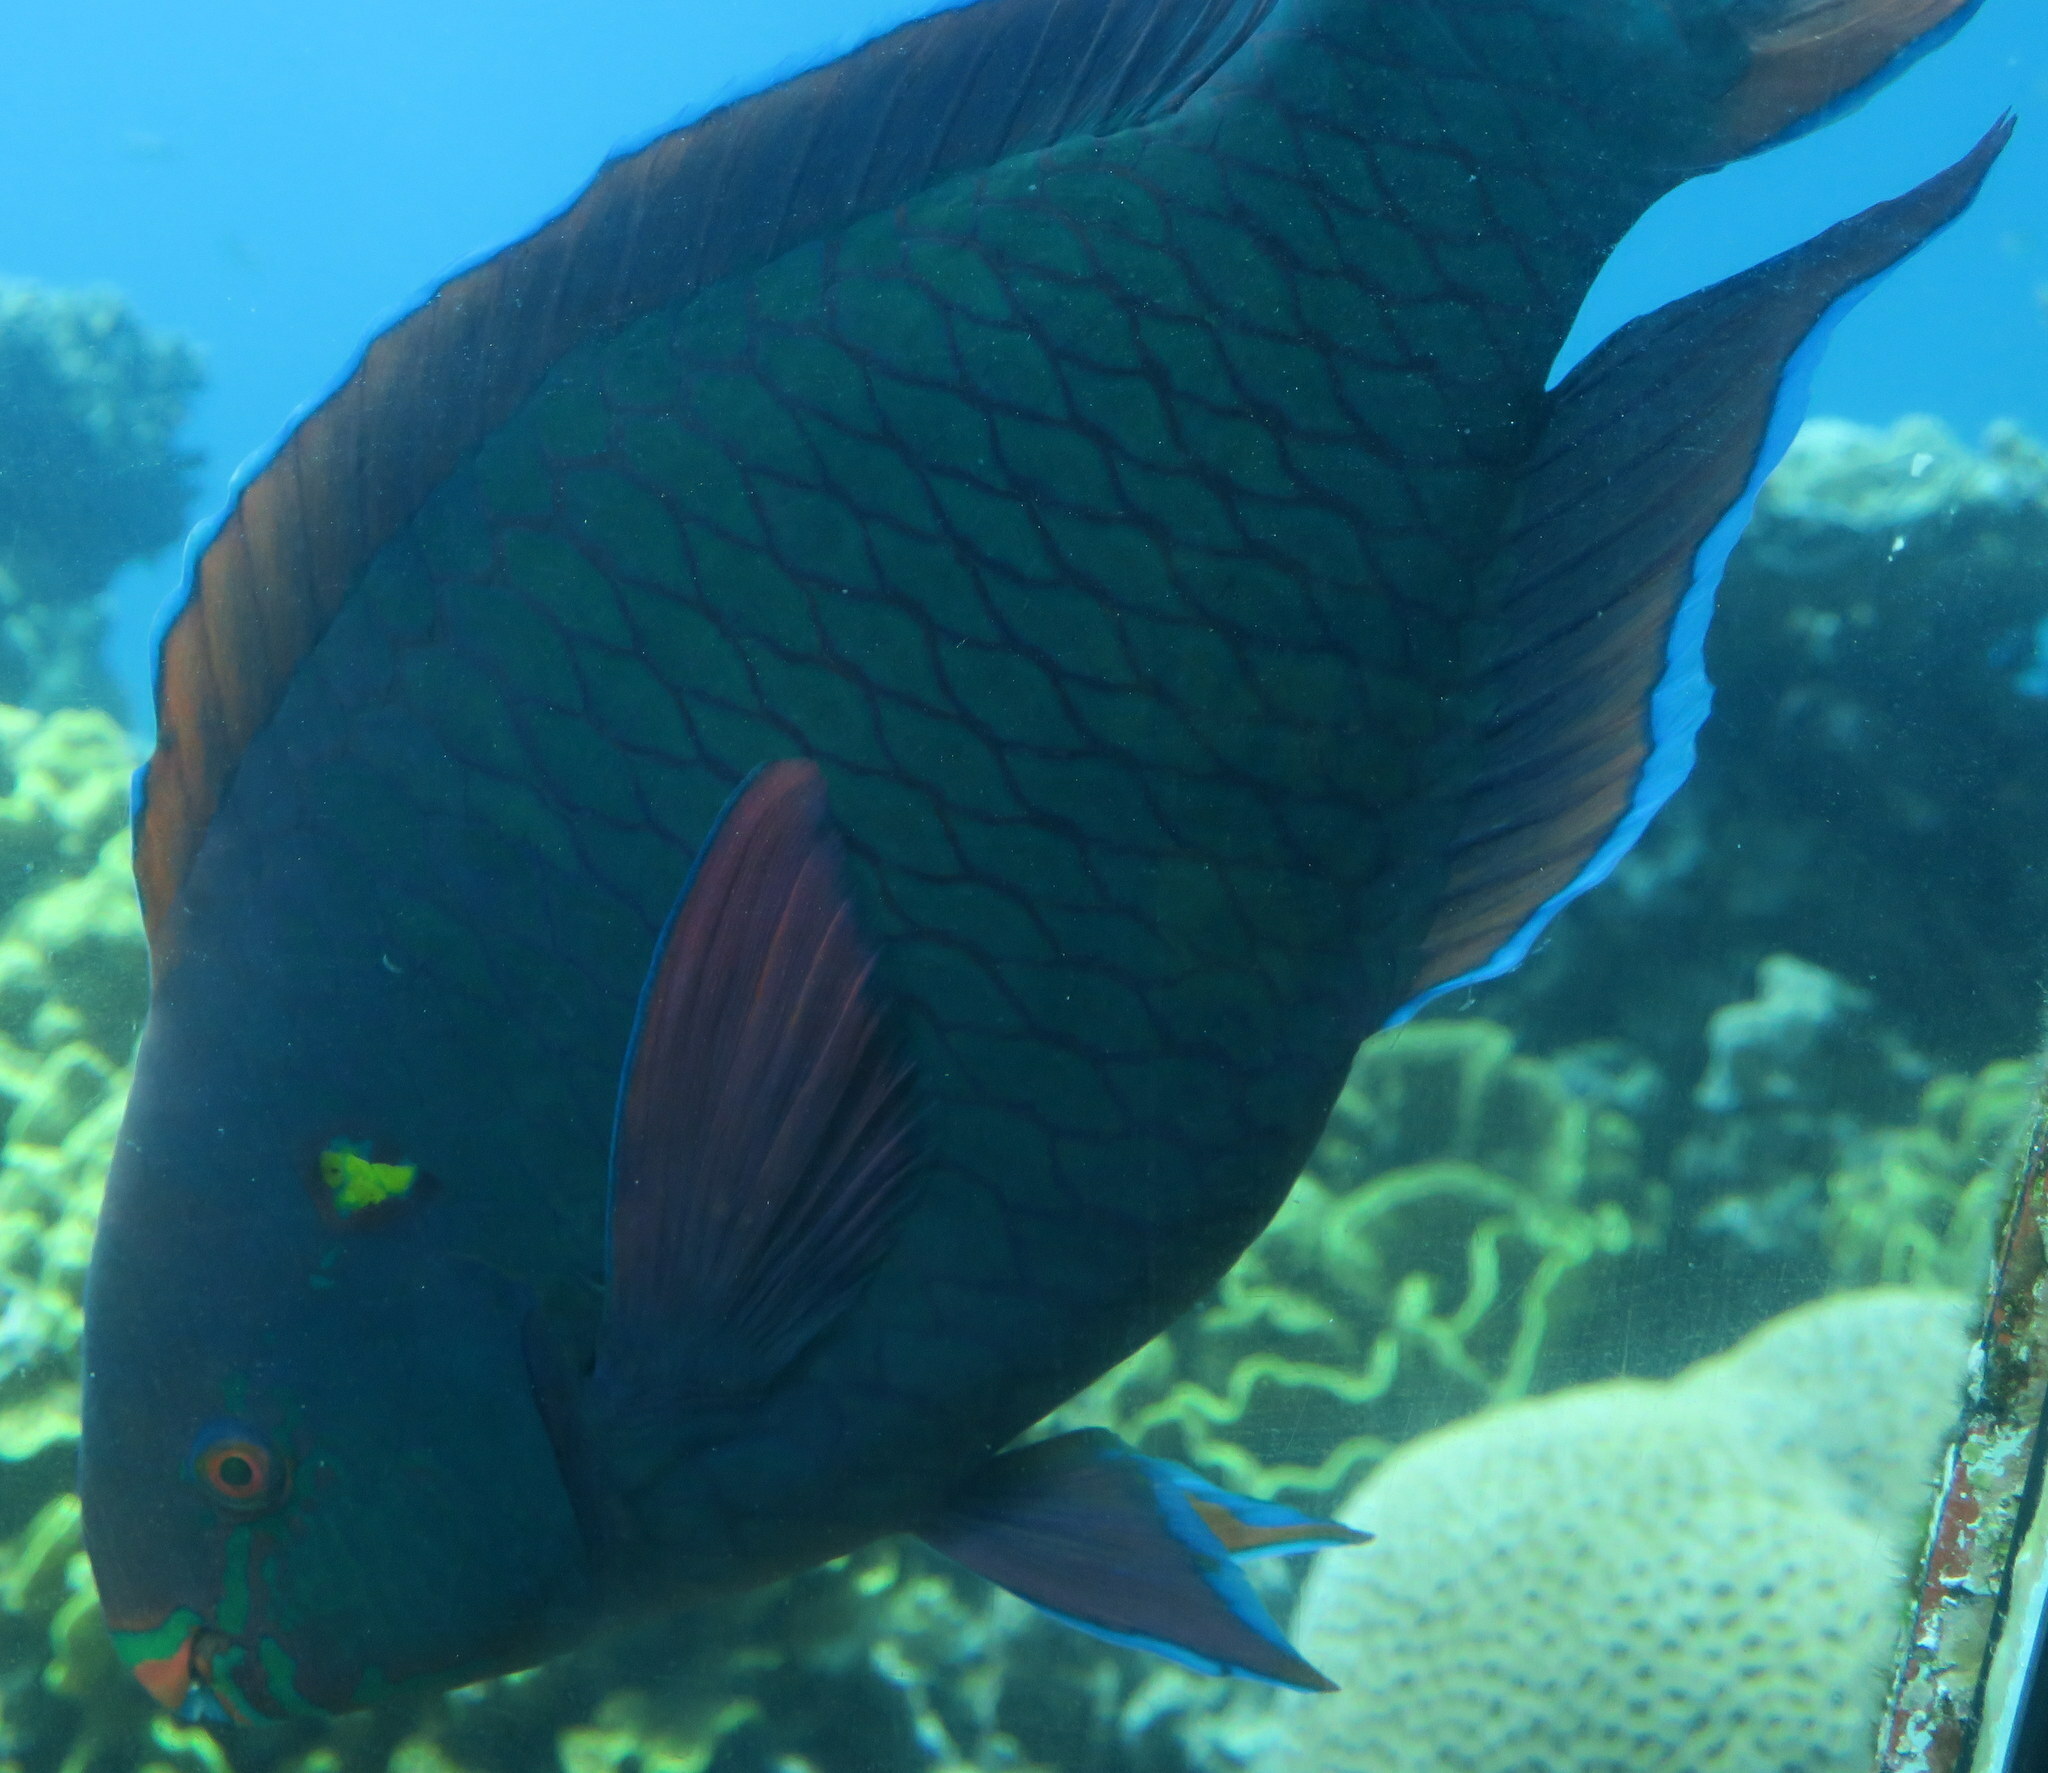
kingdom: Animalia
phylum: Chordata
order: Perciformes
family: Scaridae
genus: Scarus
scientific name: Scarus niger
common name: Dusky parrotfish
